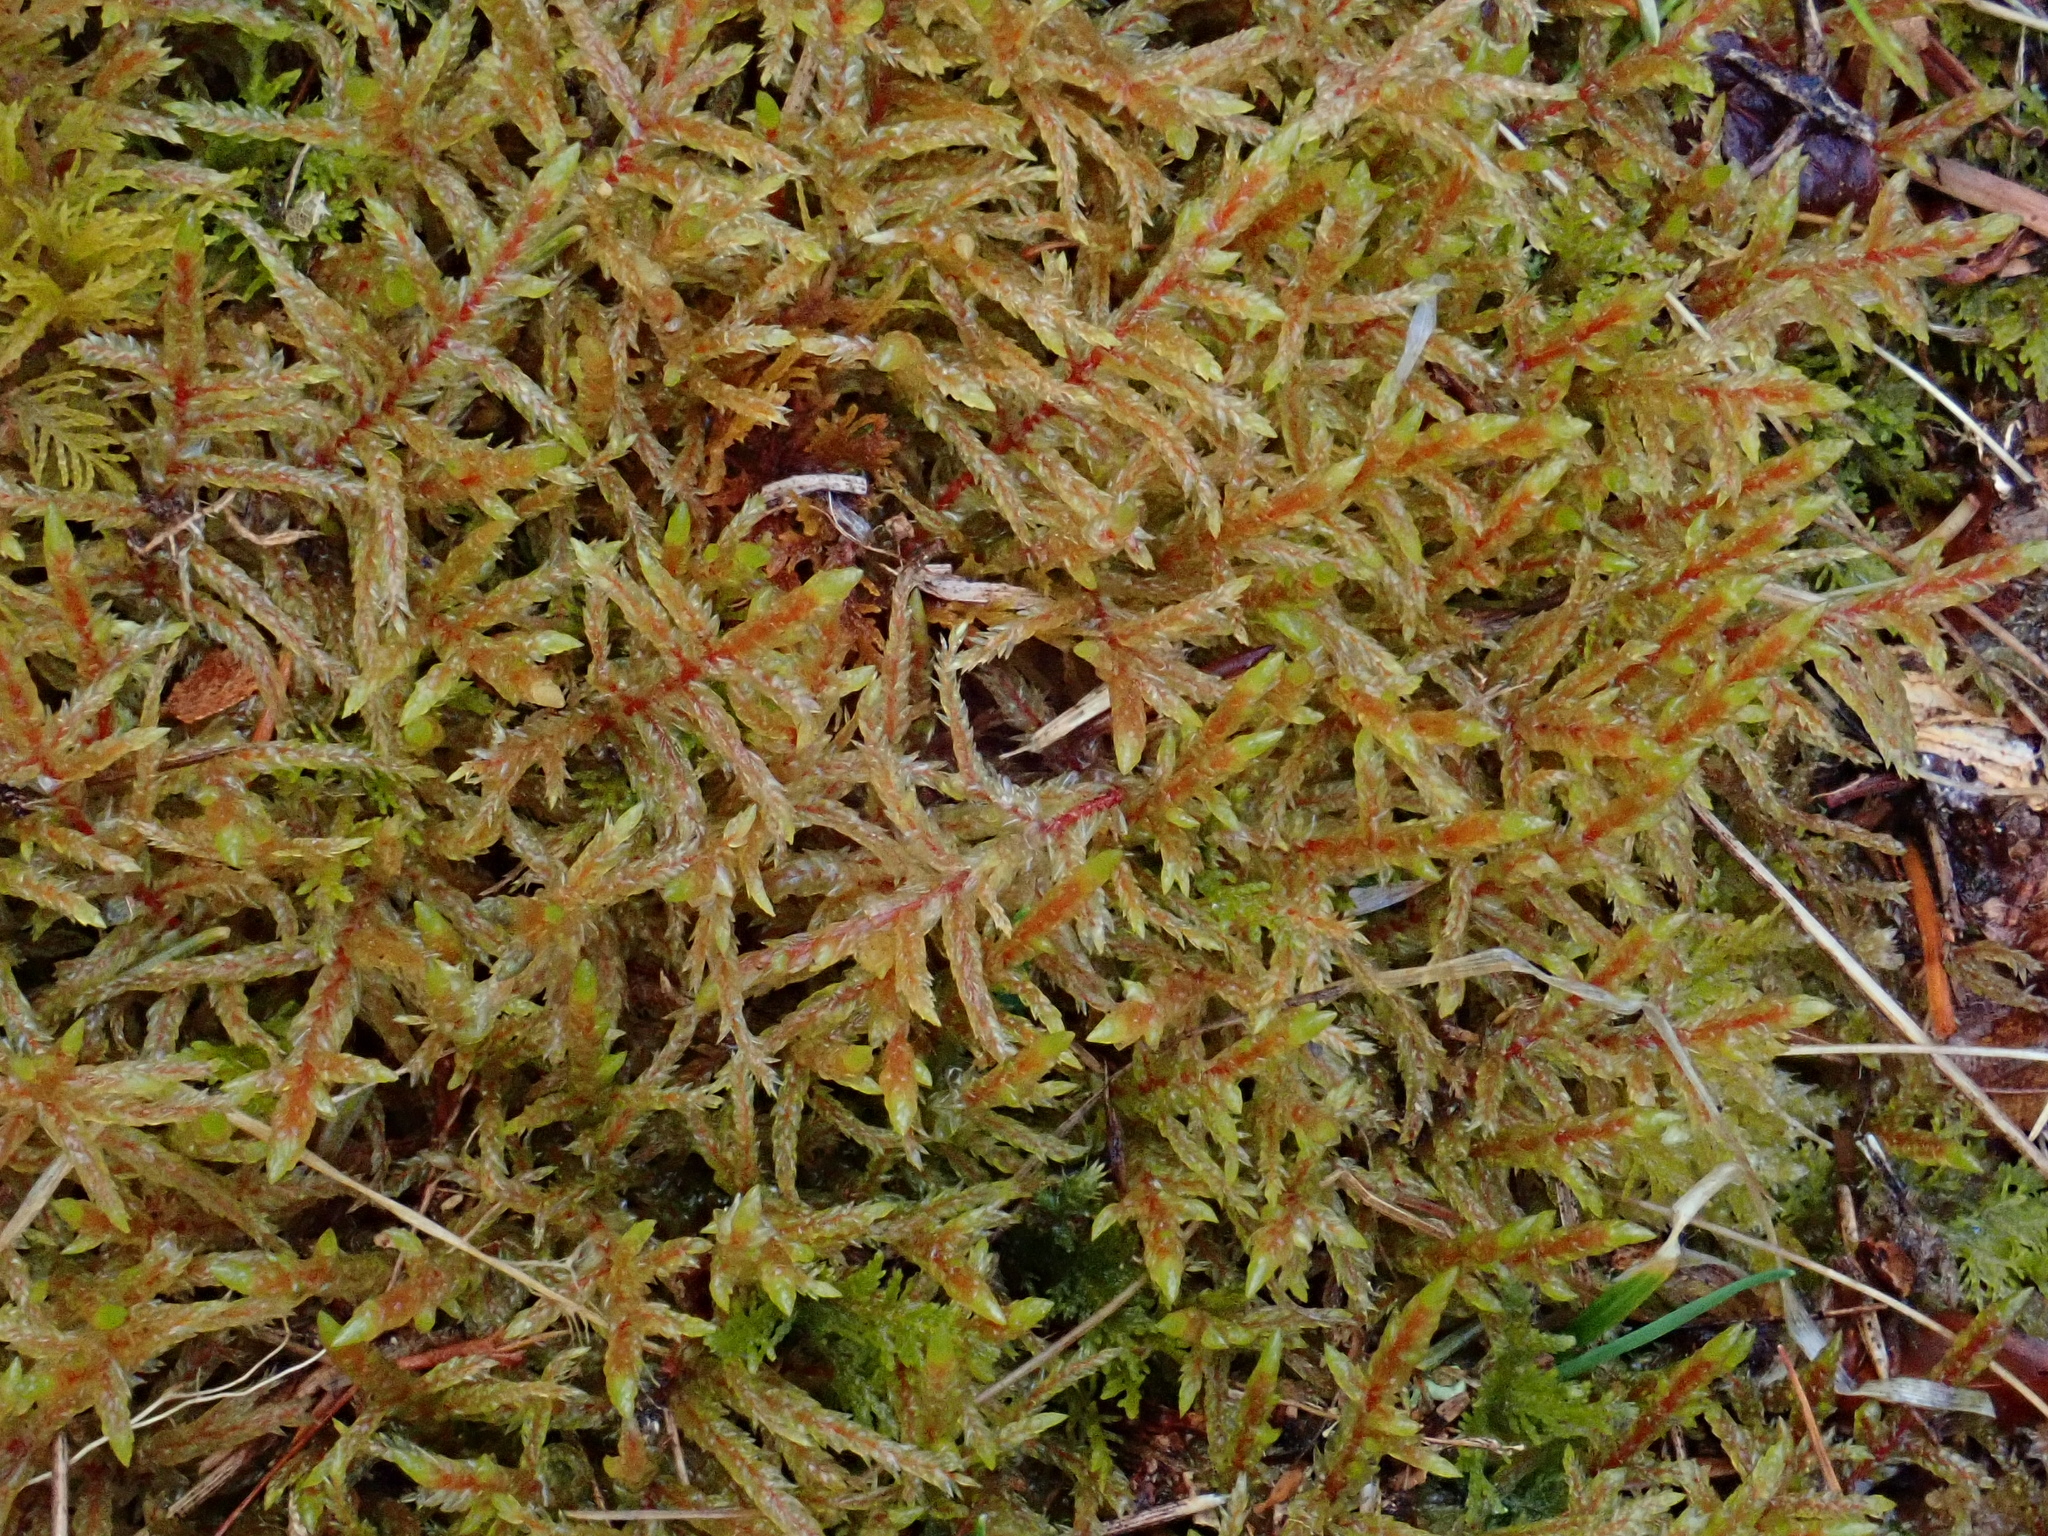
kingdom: Plantae
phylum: Bryophyta
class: Bryopsida
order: Hypnales
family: Hylocomiaceae
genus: Pleurozium
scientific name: Pleurozium schreberi
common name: Red-stemmed feather moss
